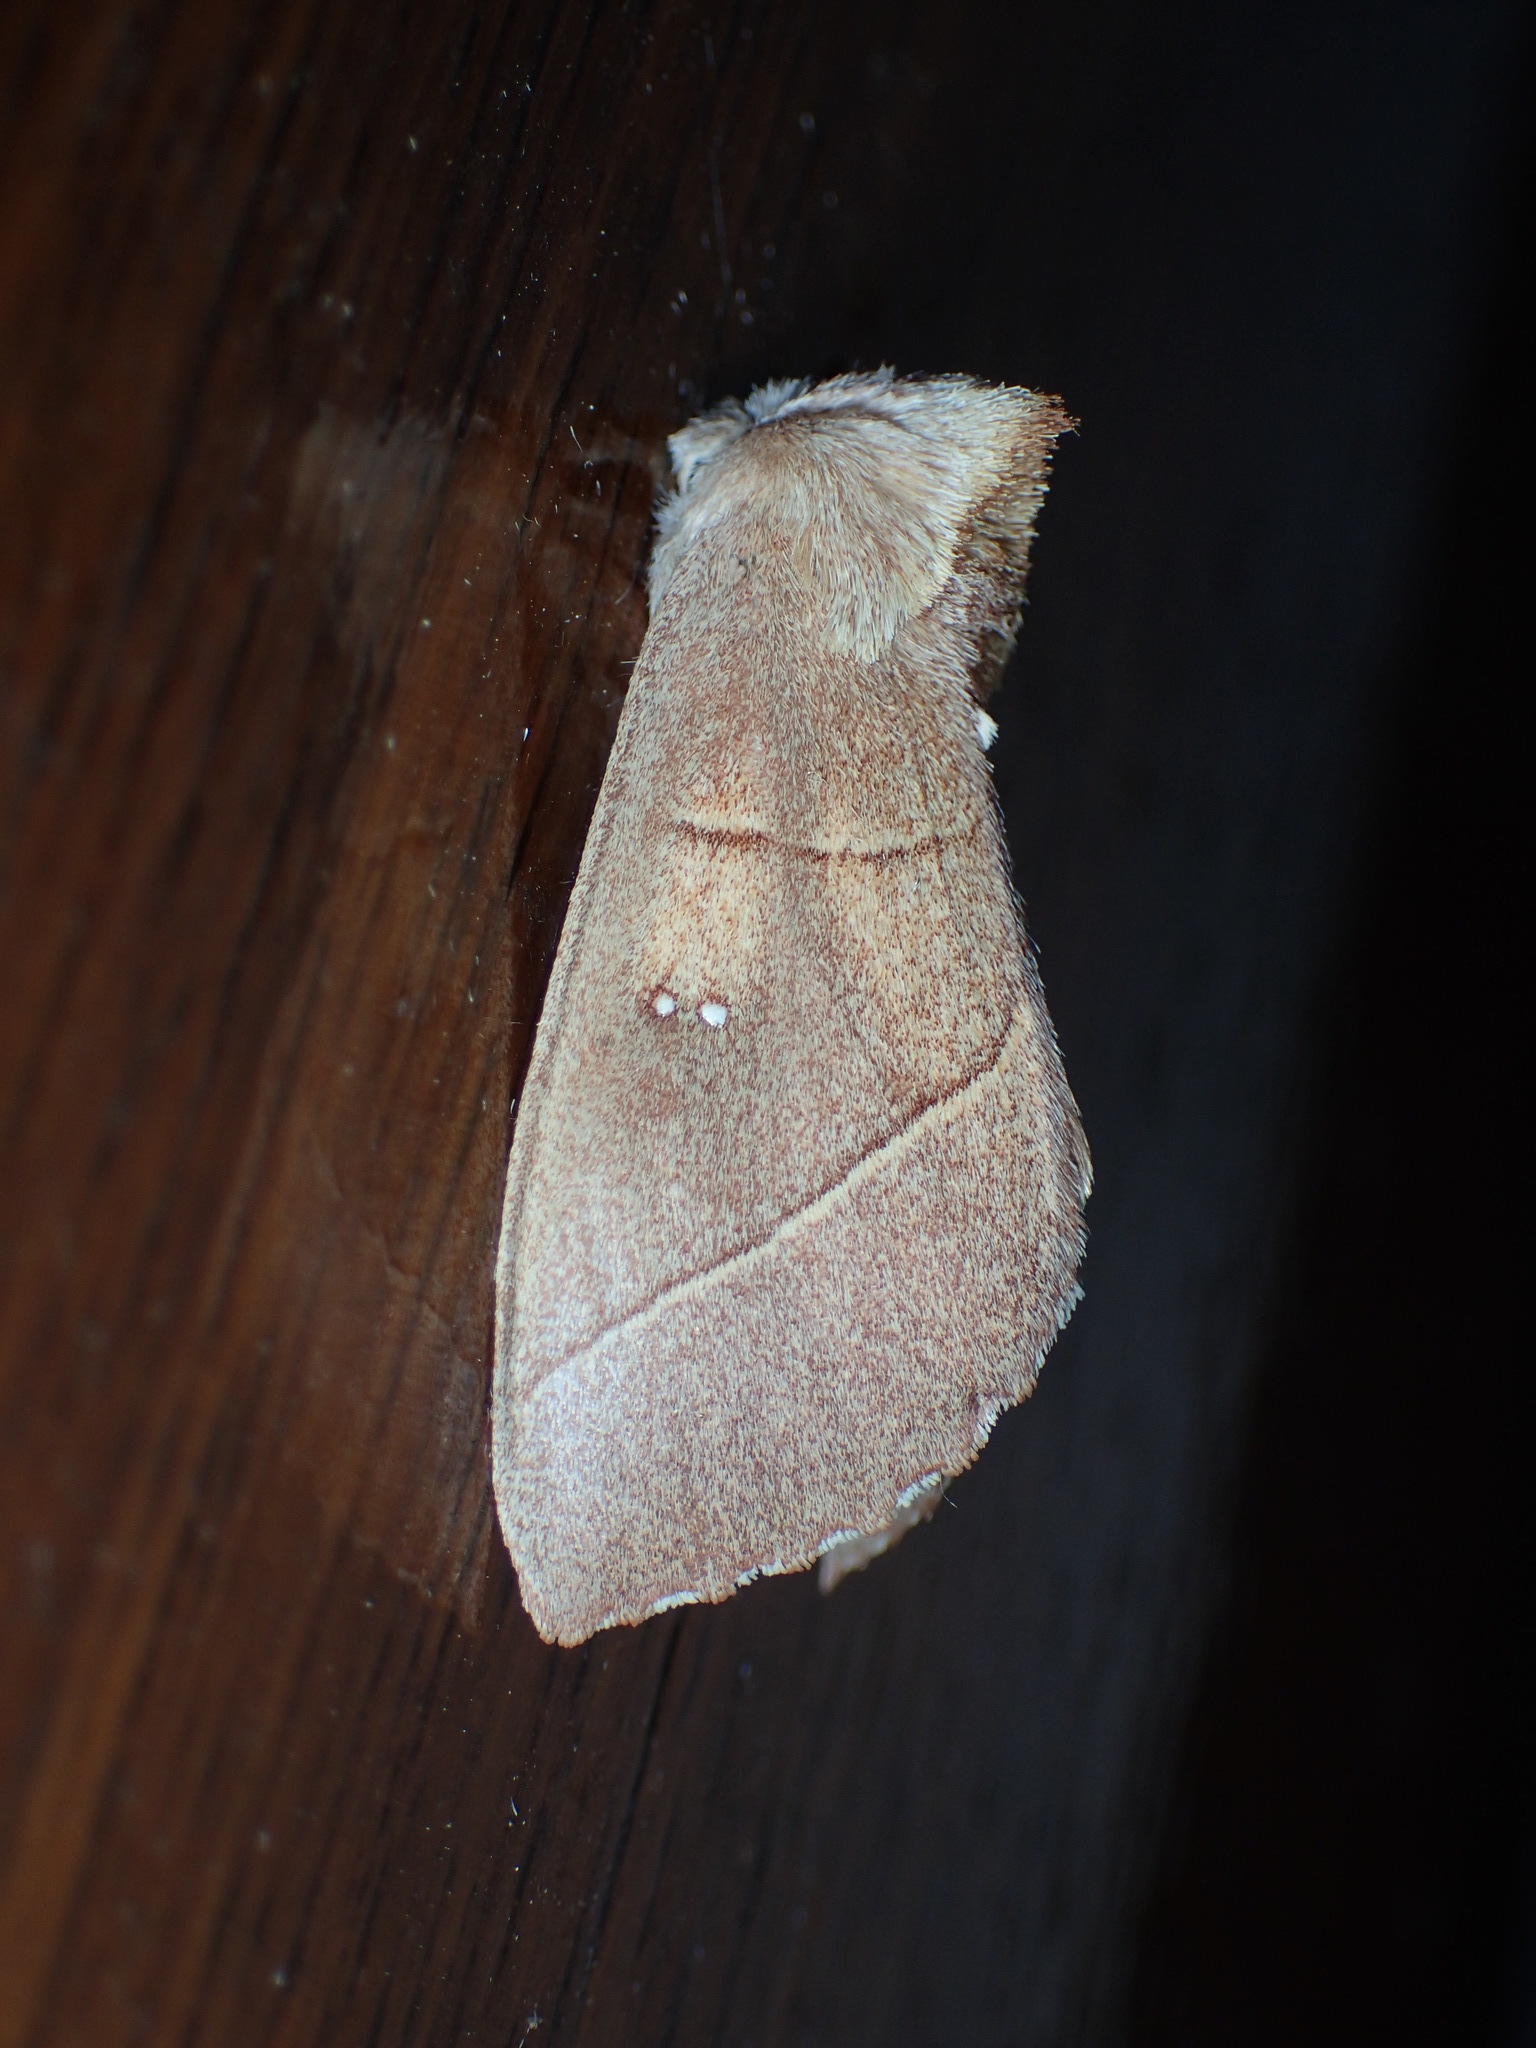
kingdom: Animalia
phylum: Arthropoda
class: Insecta
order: Lepidoptera
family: Notodontidae
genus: Nadata
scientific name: Nadata gibbosa
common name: White-dotted prominent
